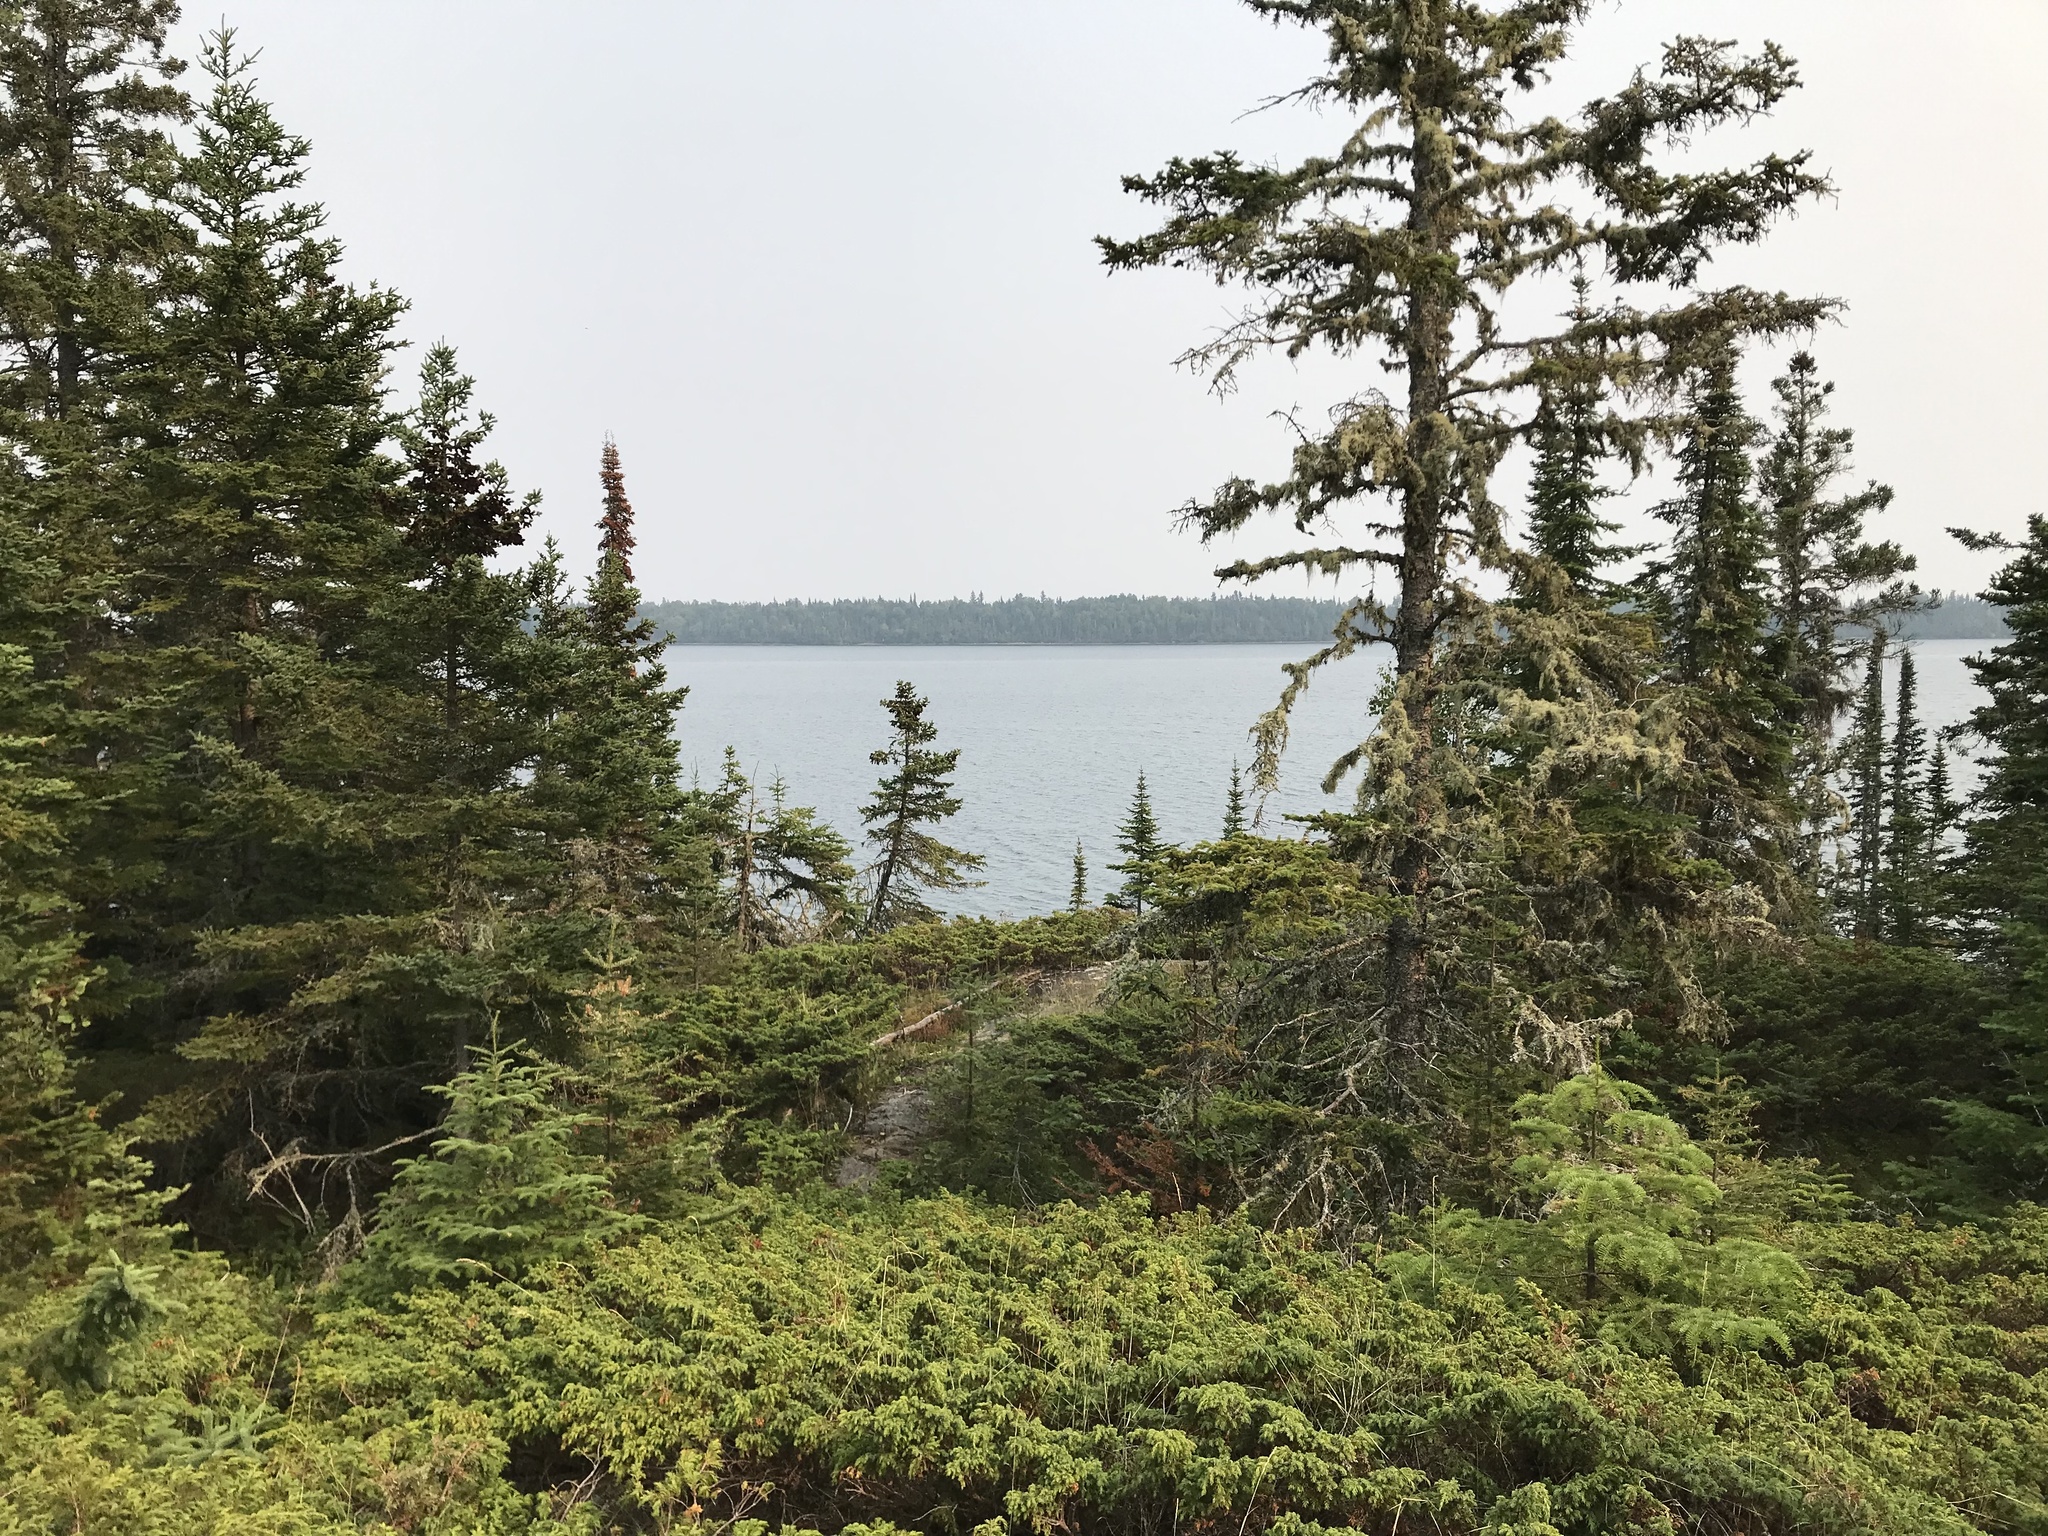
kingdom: Plantae
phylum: Tracheophyta
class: Pinopsida
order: Pinales
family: Pinaceae
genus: Abies
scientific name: Abies balsamea
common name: Balsam fir
